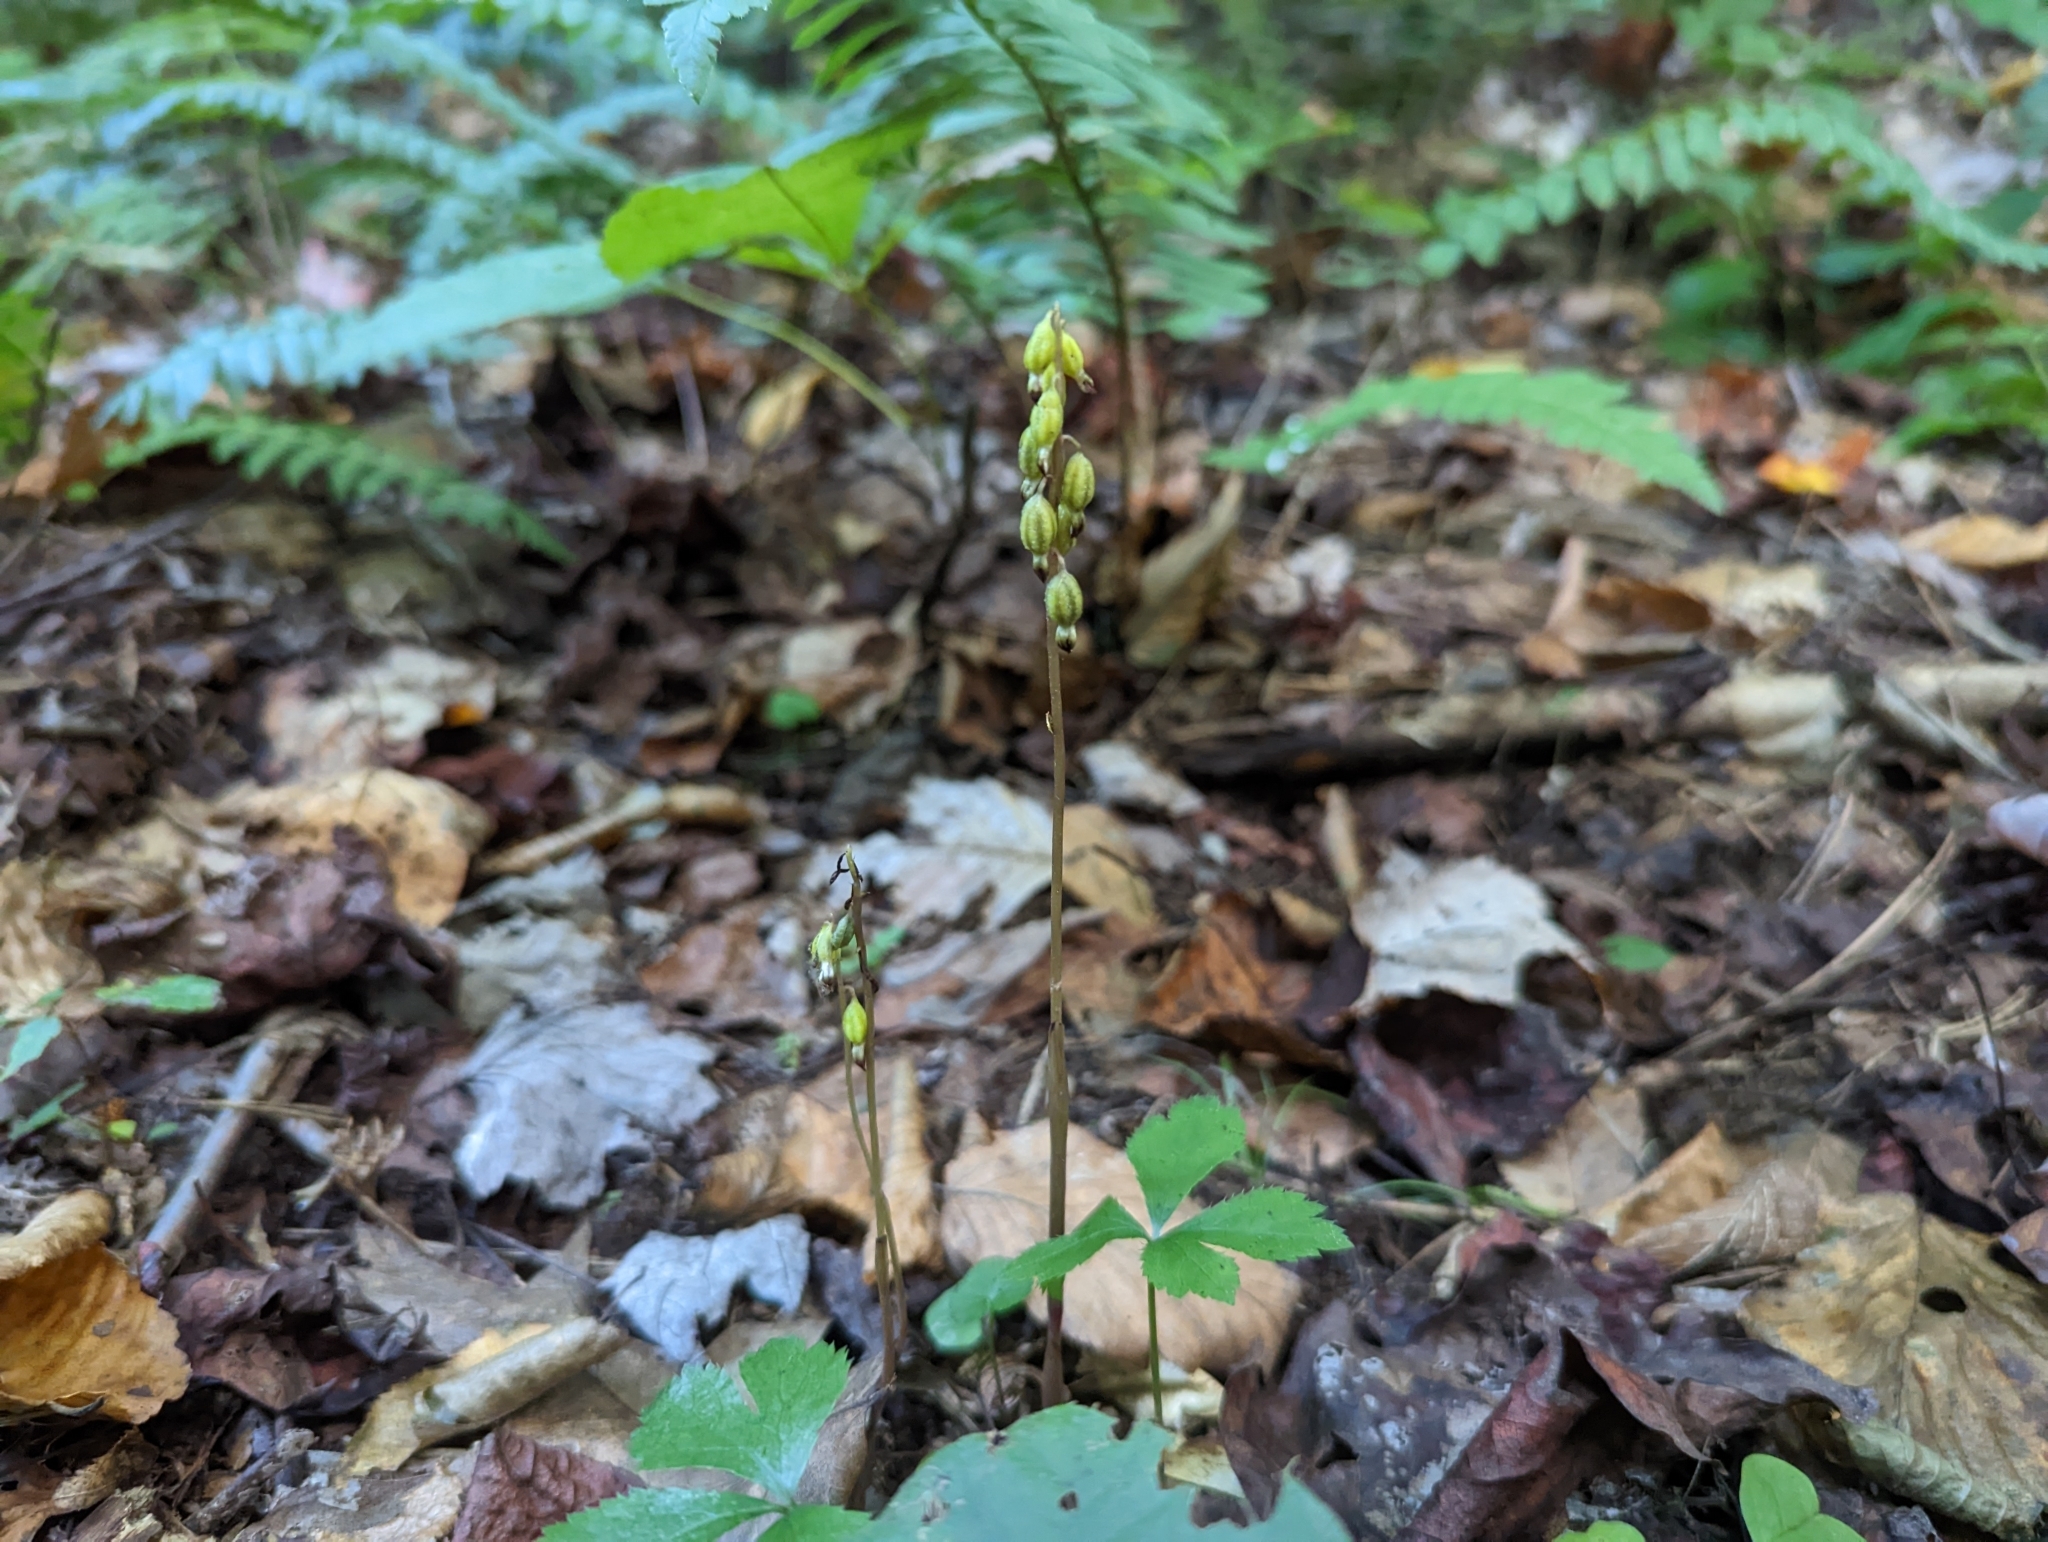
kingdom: Plantae
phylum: Tracheophyta
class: Liliopsida
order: Asparagales
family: Orchidaceae
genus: Corallorhiza
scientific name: Corallorhiza odontorhiza
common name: Autumn coralroot
